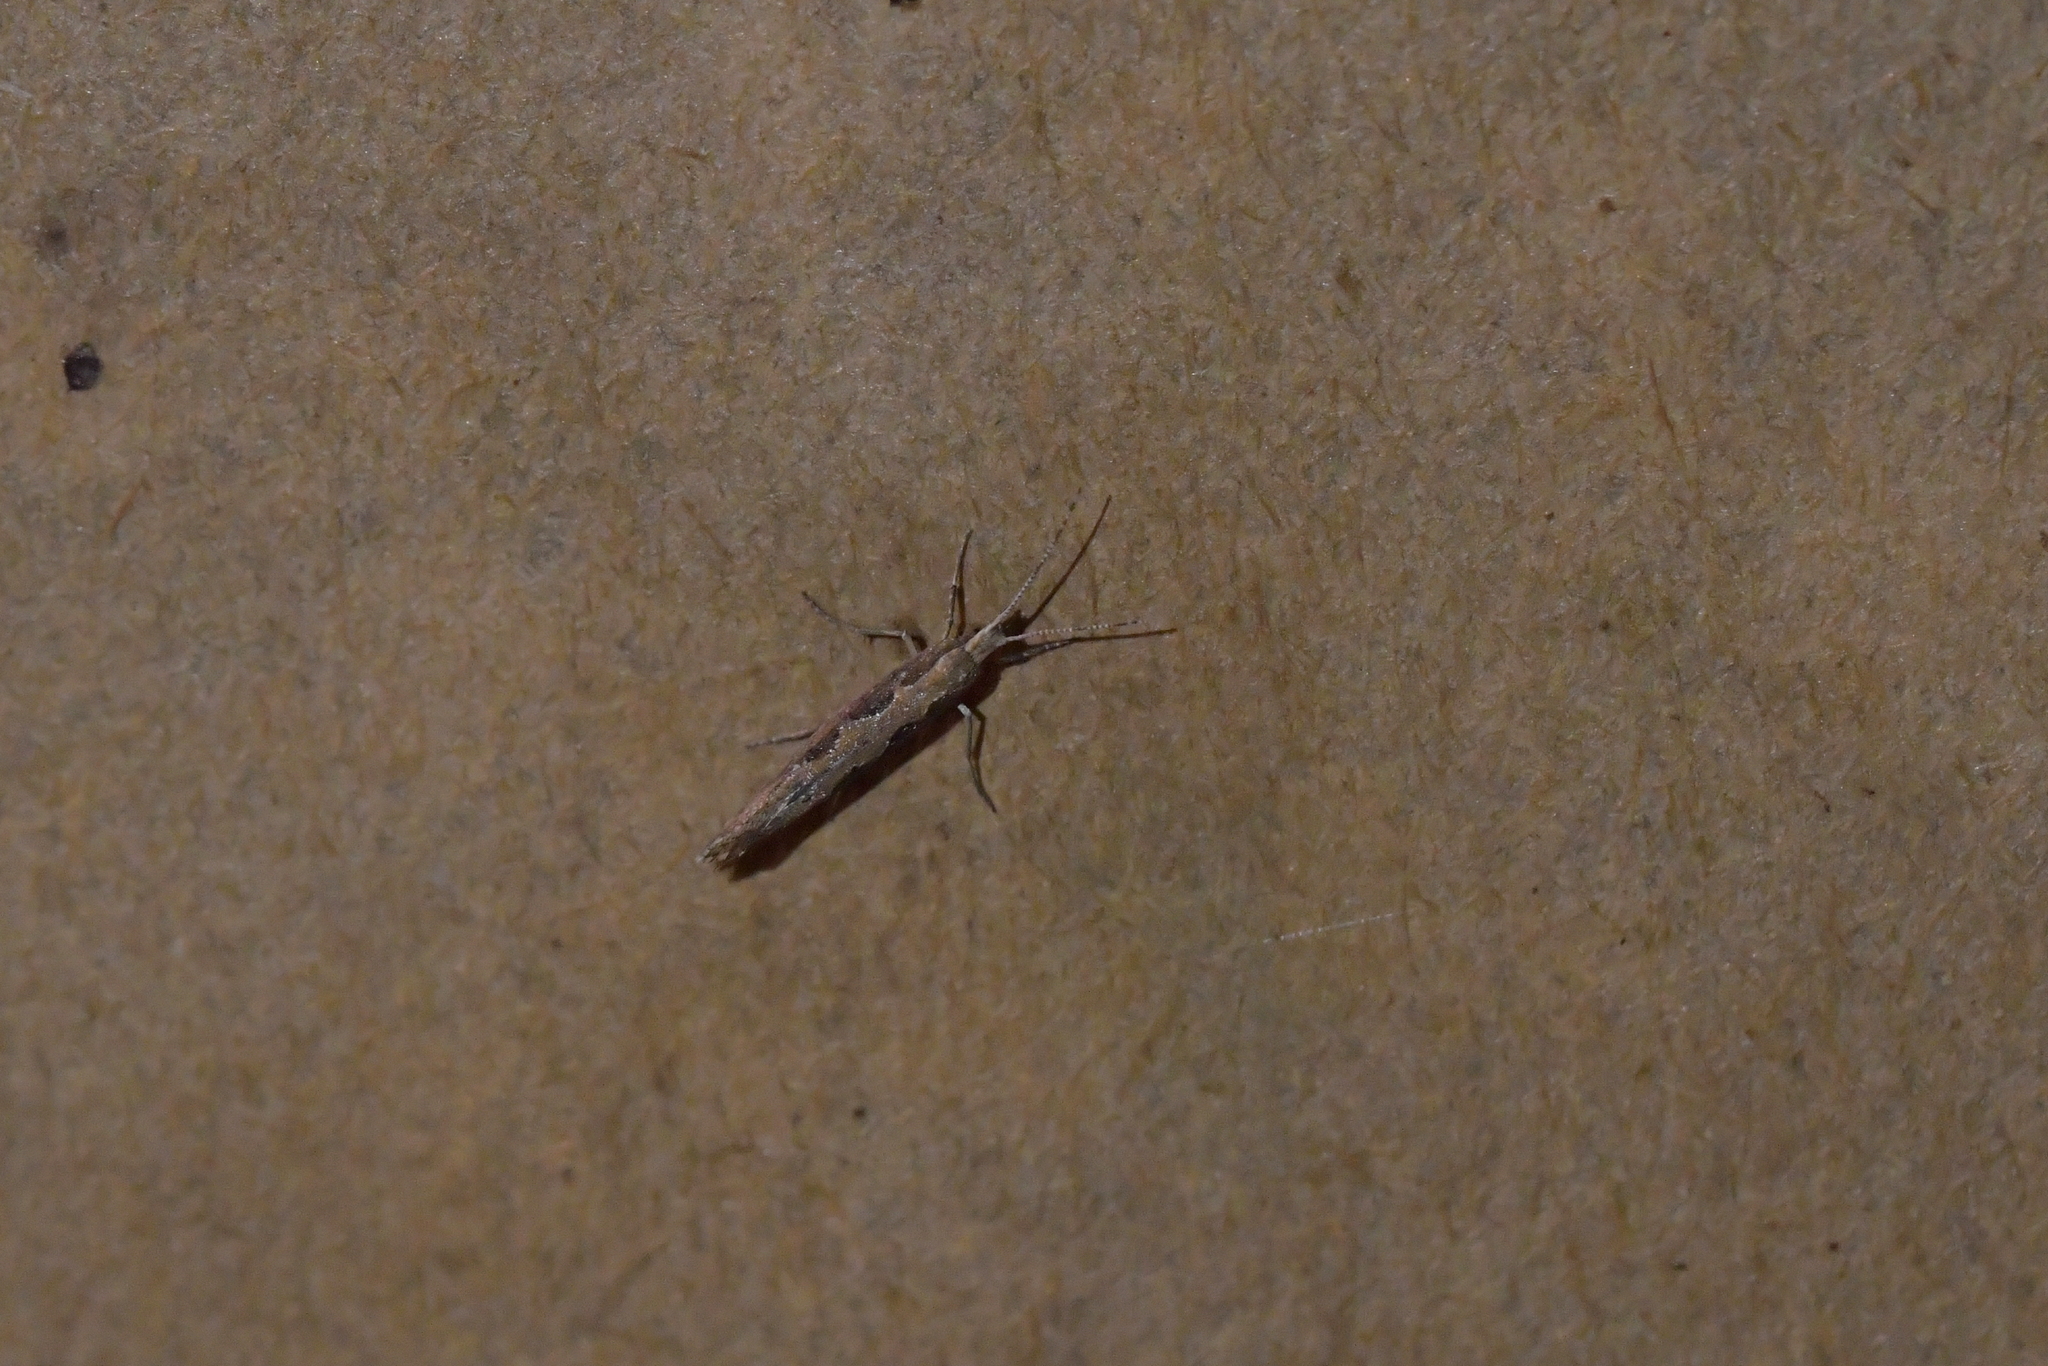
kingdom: Animalia
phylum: Arthropoda
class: Insecta
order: Lepidoptera
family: Plutellidae
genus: Plutella
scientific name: Plutella xylostella
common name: Diamond-back moth
